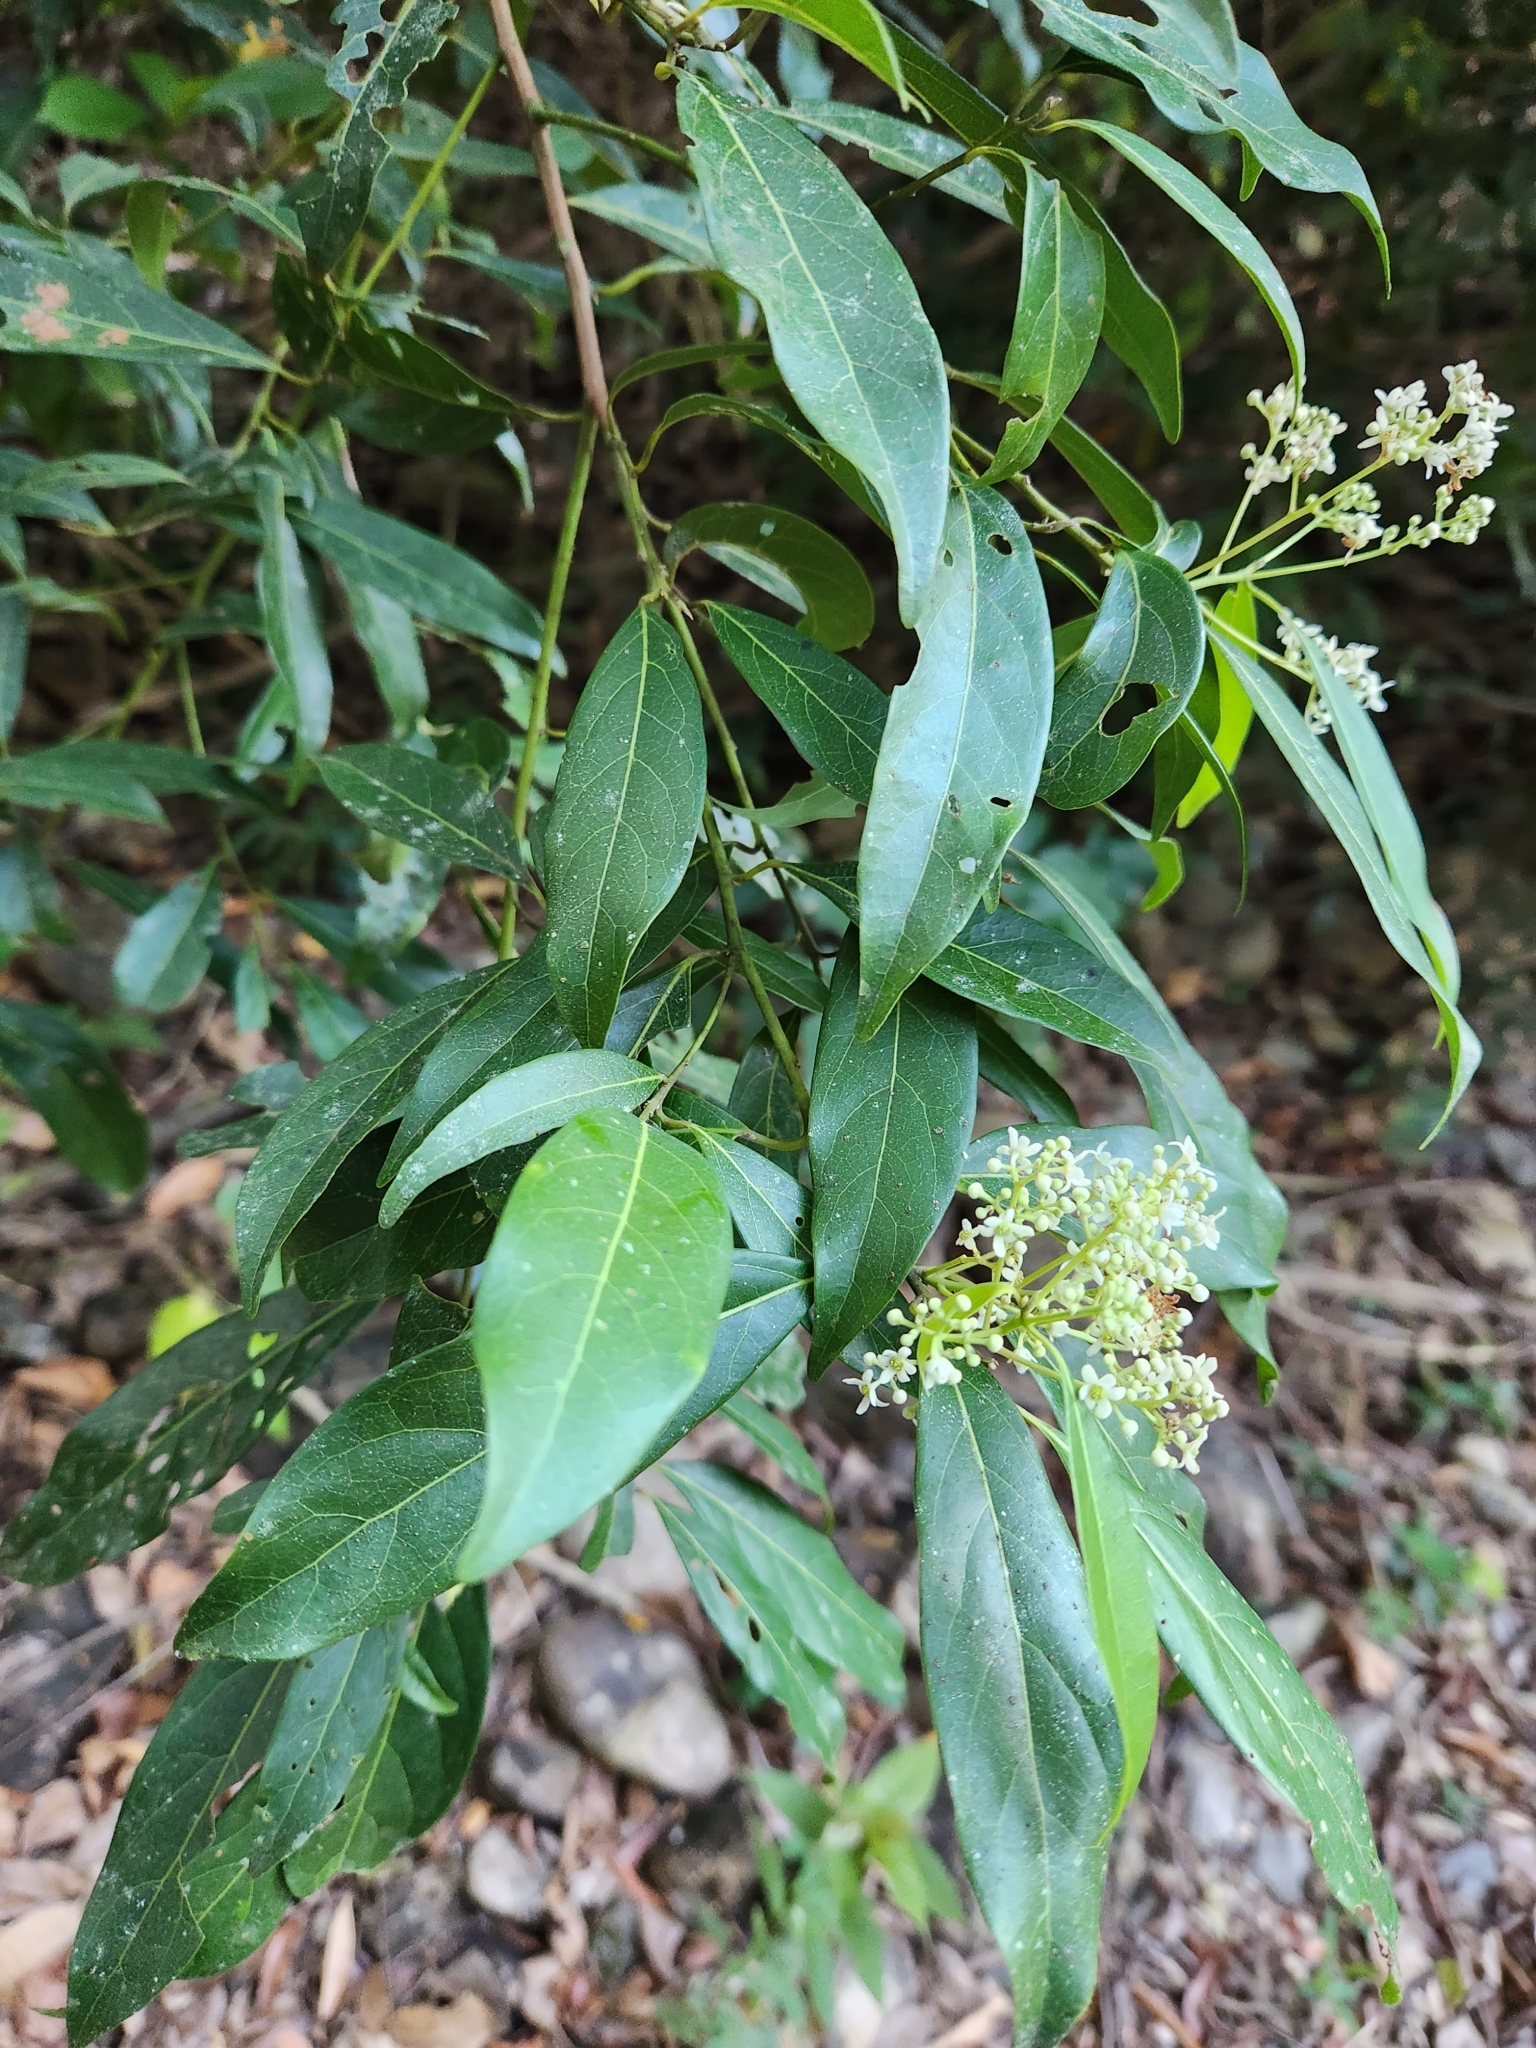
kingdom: Plantae
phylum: Tracheophyta
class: Magnoliopsida
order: Laurales
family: Lauraceae
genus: Damburneya
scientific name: Damburneya salicifolia
